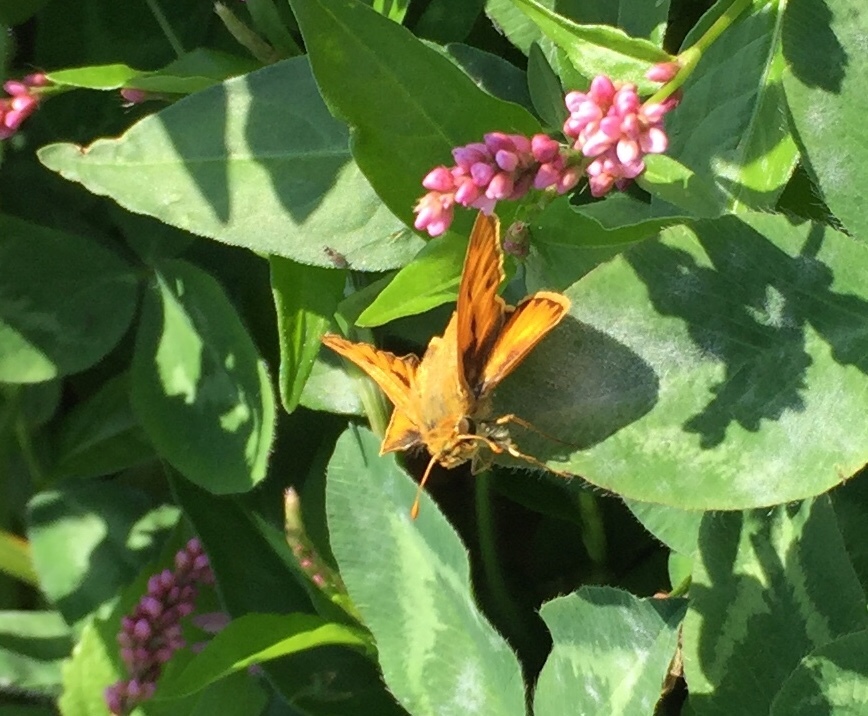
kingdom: Animalia
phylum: Arthropoda
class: Insecta
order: Lepidoptera
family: Hesperiidae
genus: Hylephila
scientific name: Hylephila phyleus
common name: Fiery skipper
